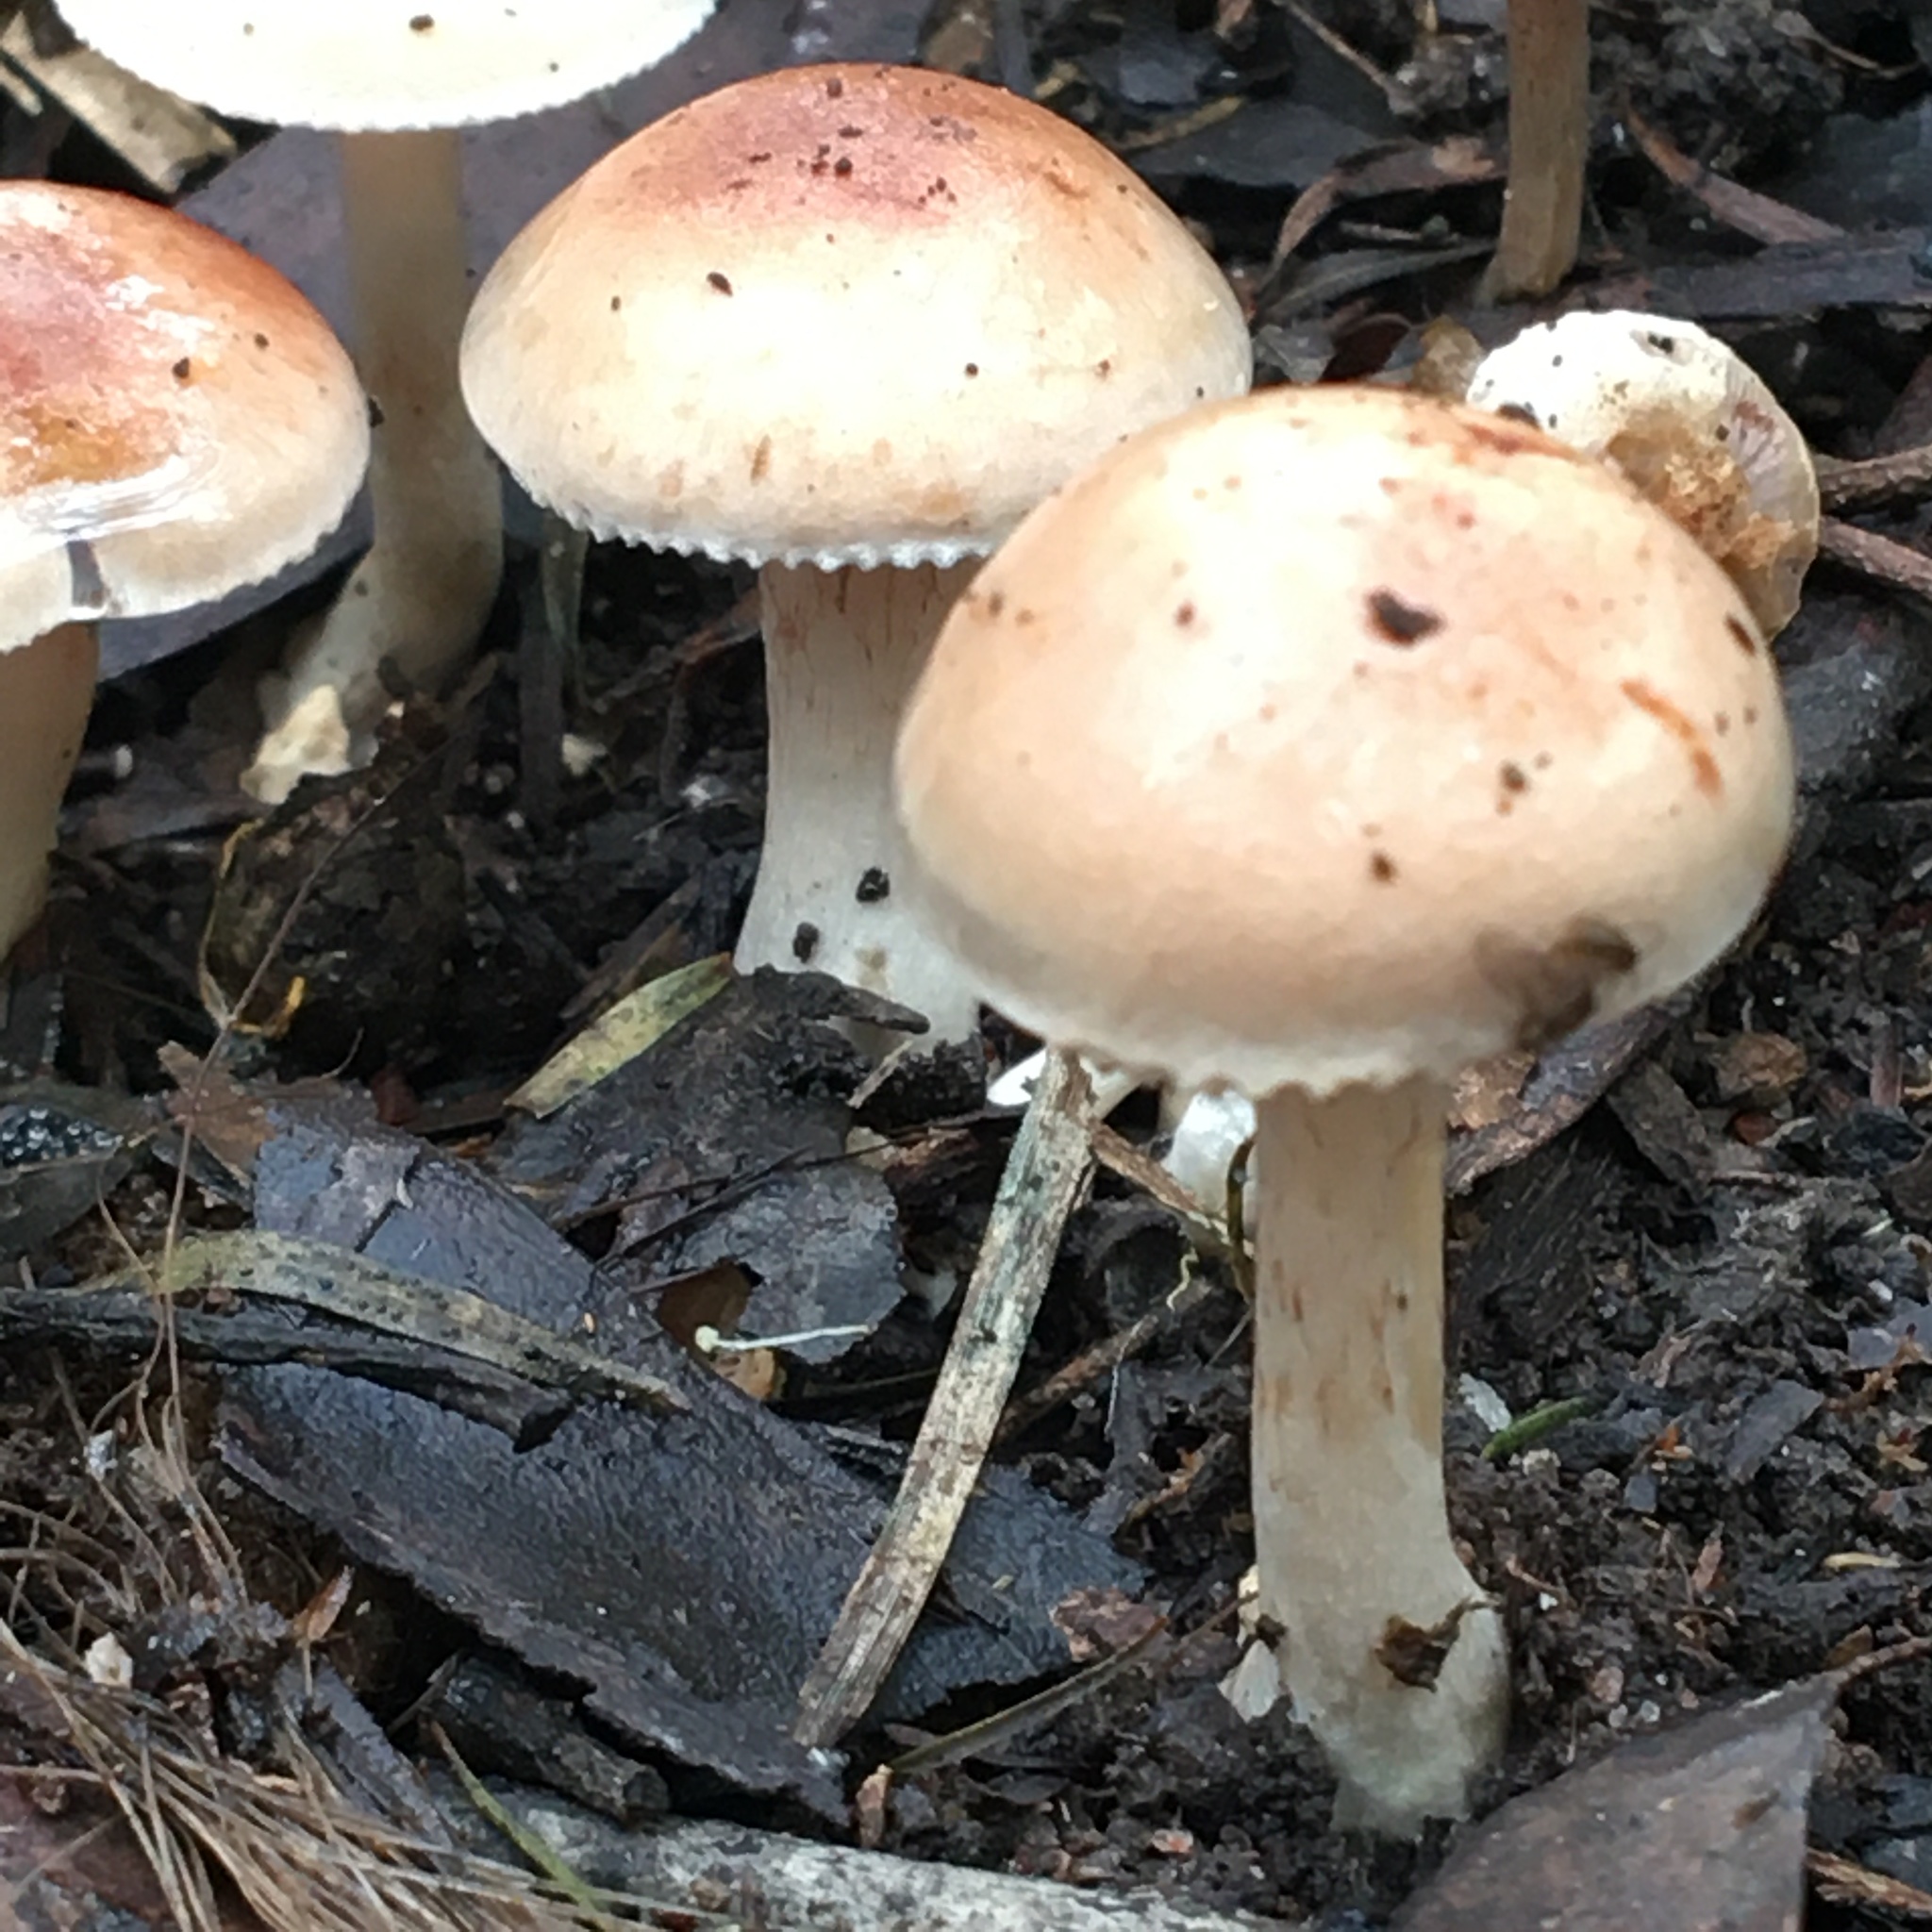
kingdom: Fungi
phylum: Basidiomycota
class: Agaricomycetes
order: Agaricales
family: Hymenogastraceae
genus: Hebeloma
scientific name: Hebeloma aminophilum
